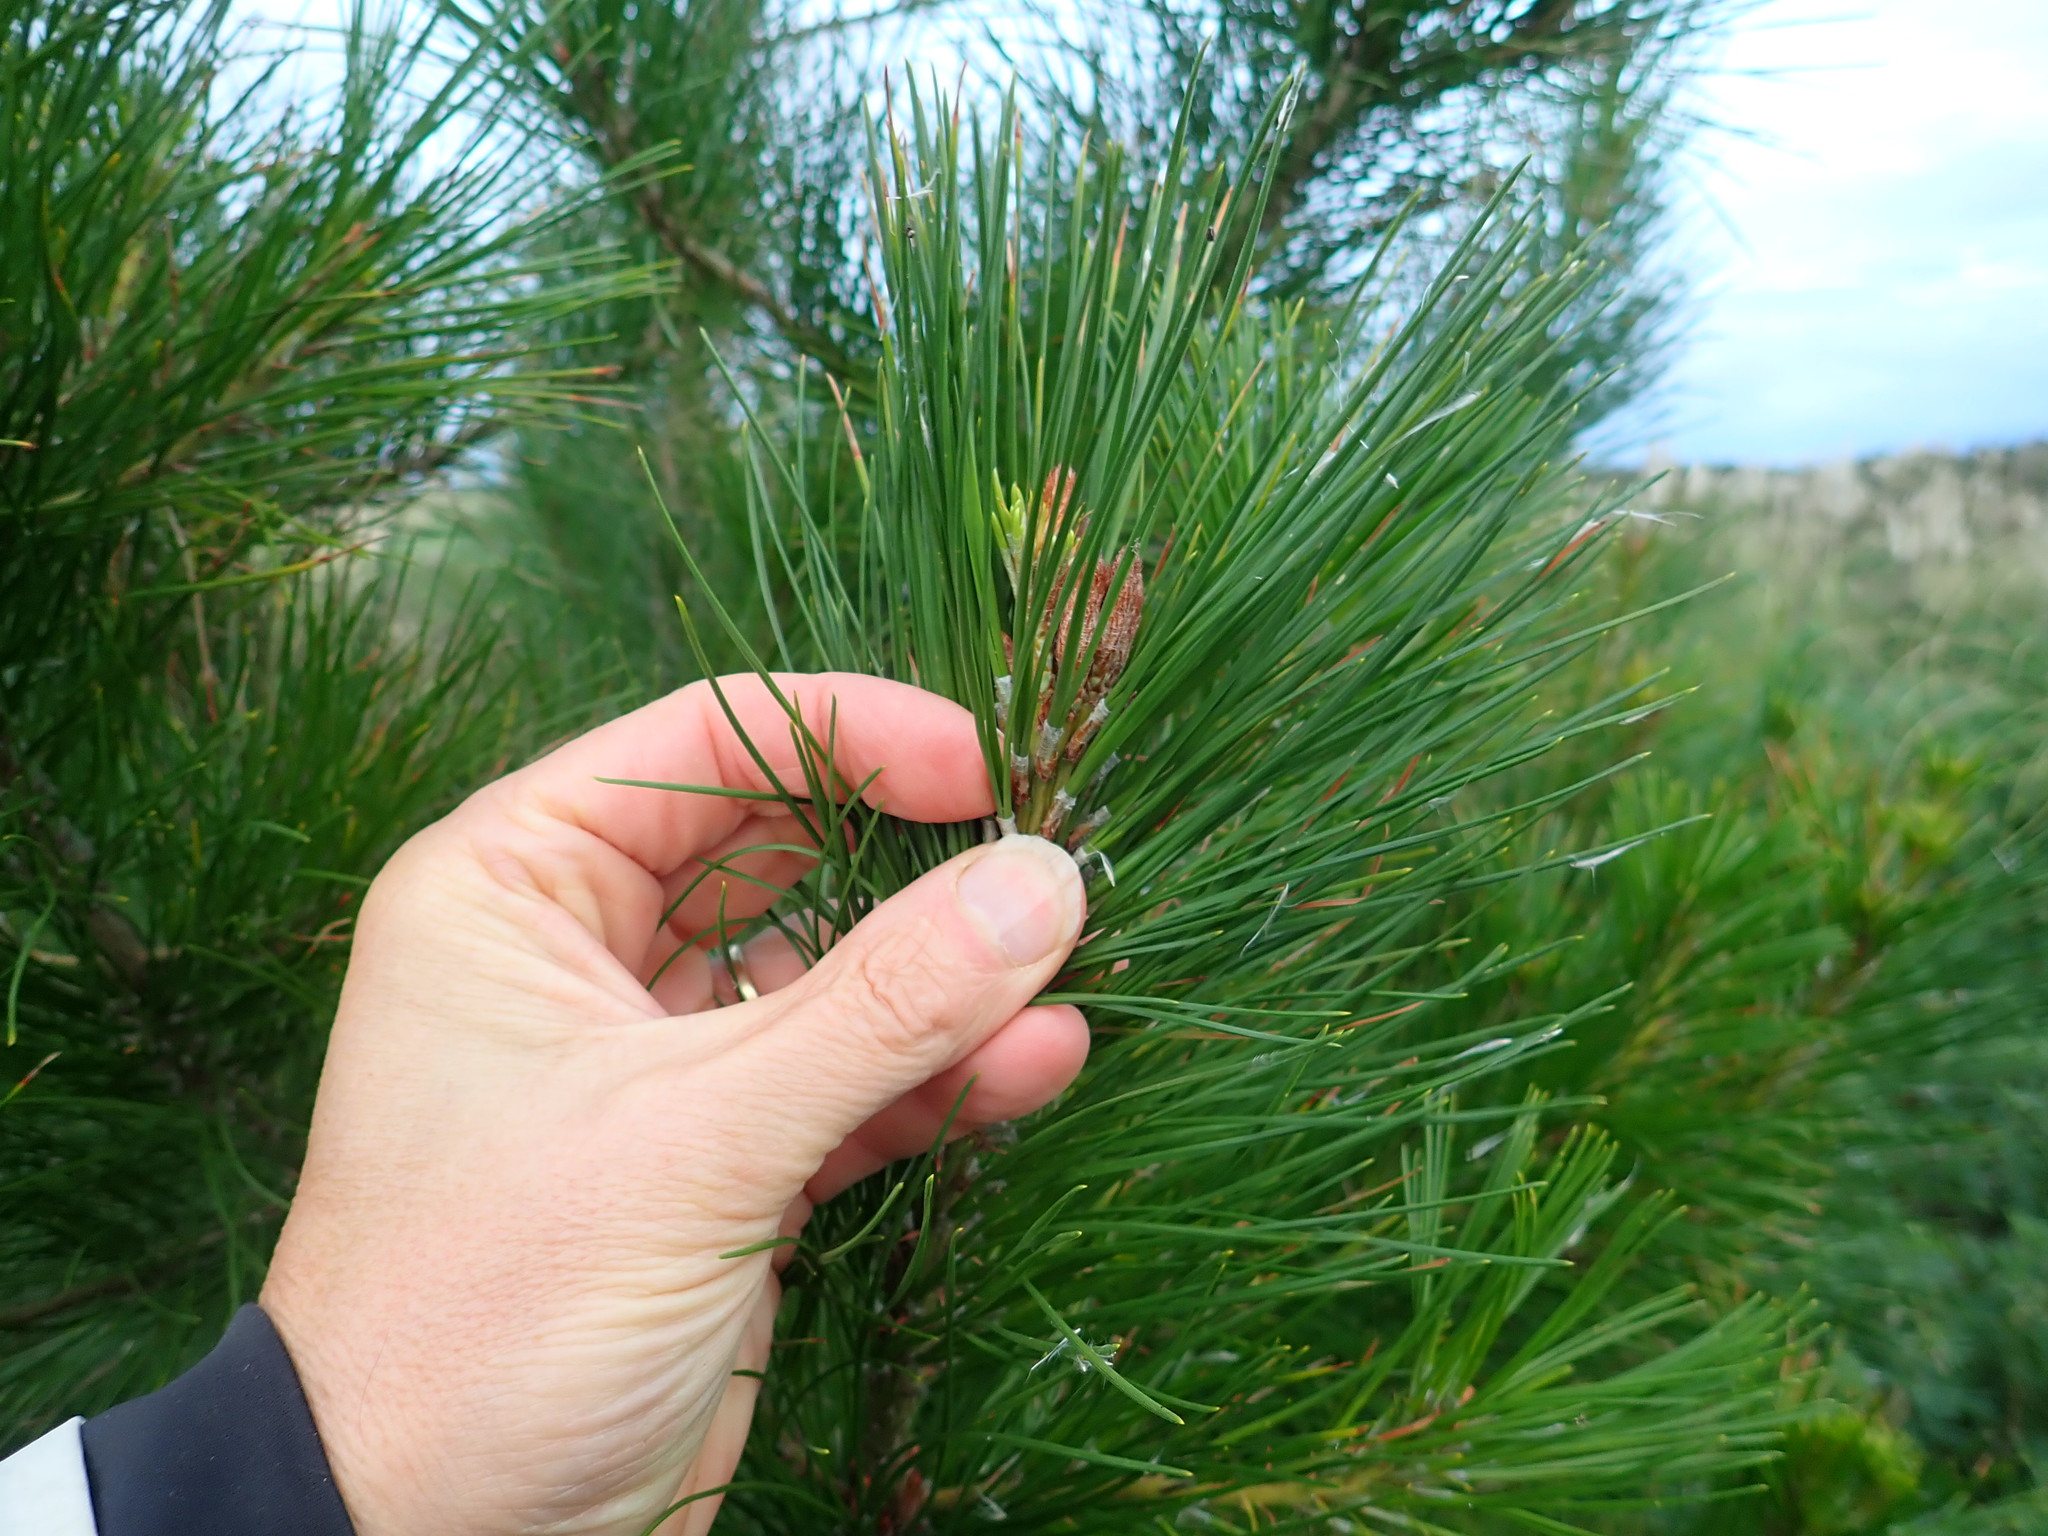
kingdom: Plantae
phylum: Tracheophyta
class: Pinopsida
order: Pinales
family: Pinaceae
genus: Pinus
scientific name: Pinus radiata
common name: Monterey pine
